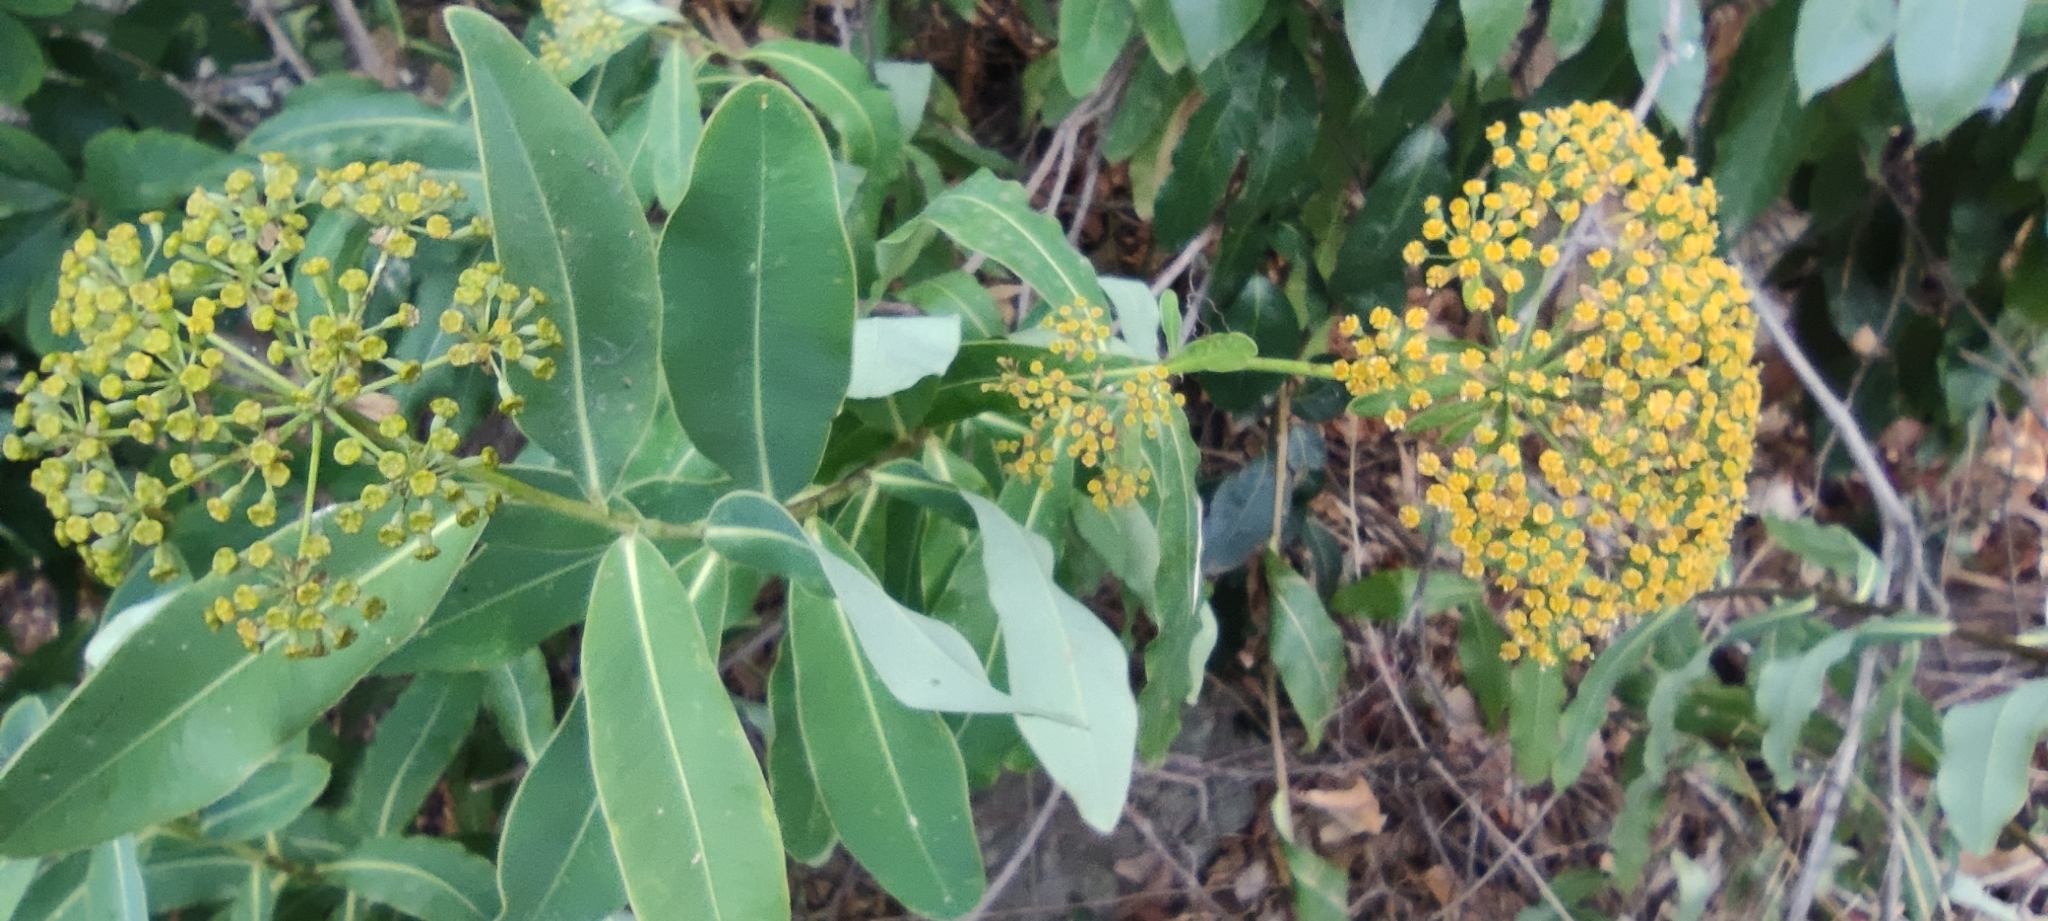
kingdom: Plantae
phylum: Tracheophyta
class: Magnoliopsida
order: Apiales
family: Apiaceae
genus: Bupleurum
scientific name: Bupleurum fruticosum
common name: Shrubby hare's-ear
